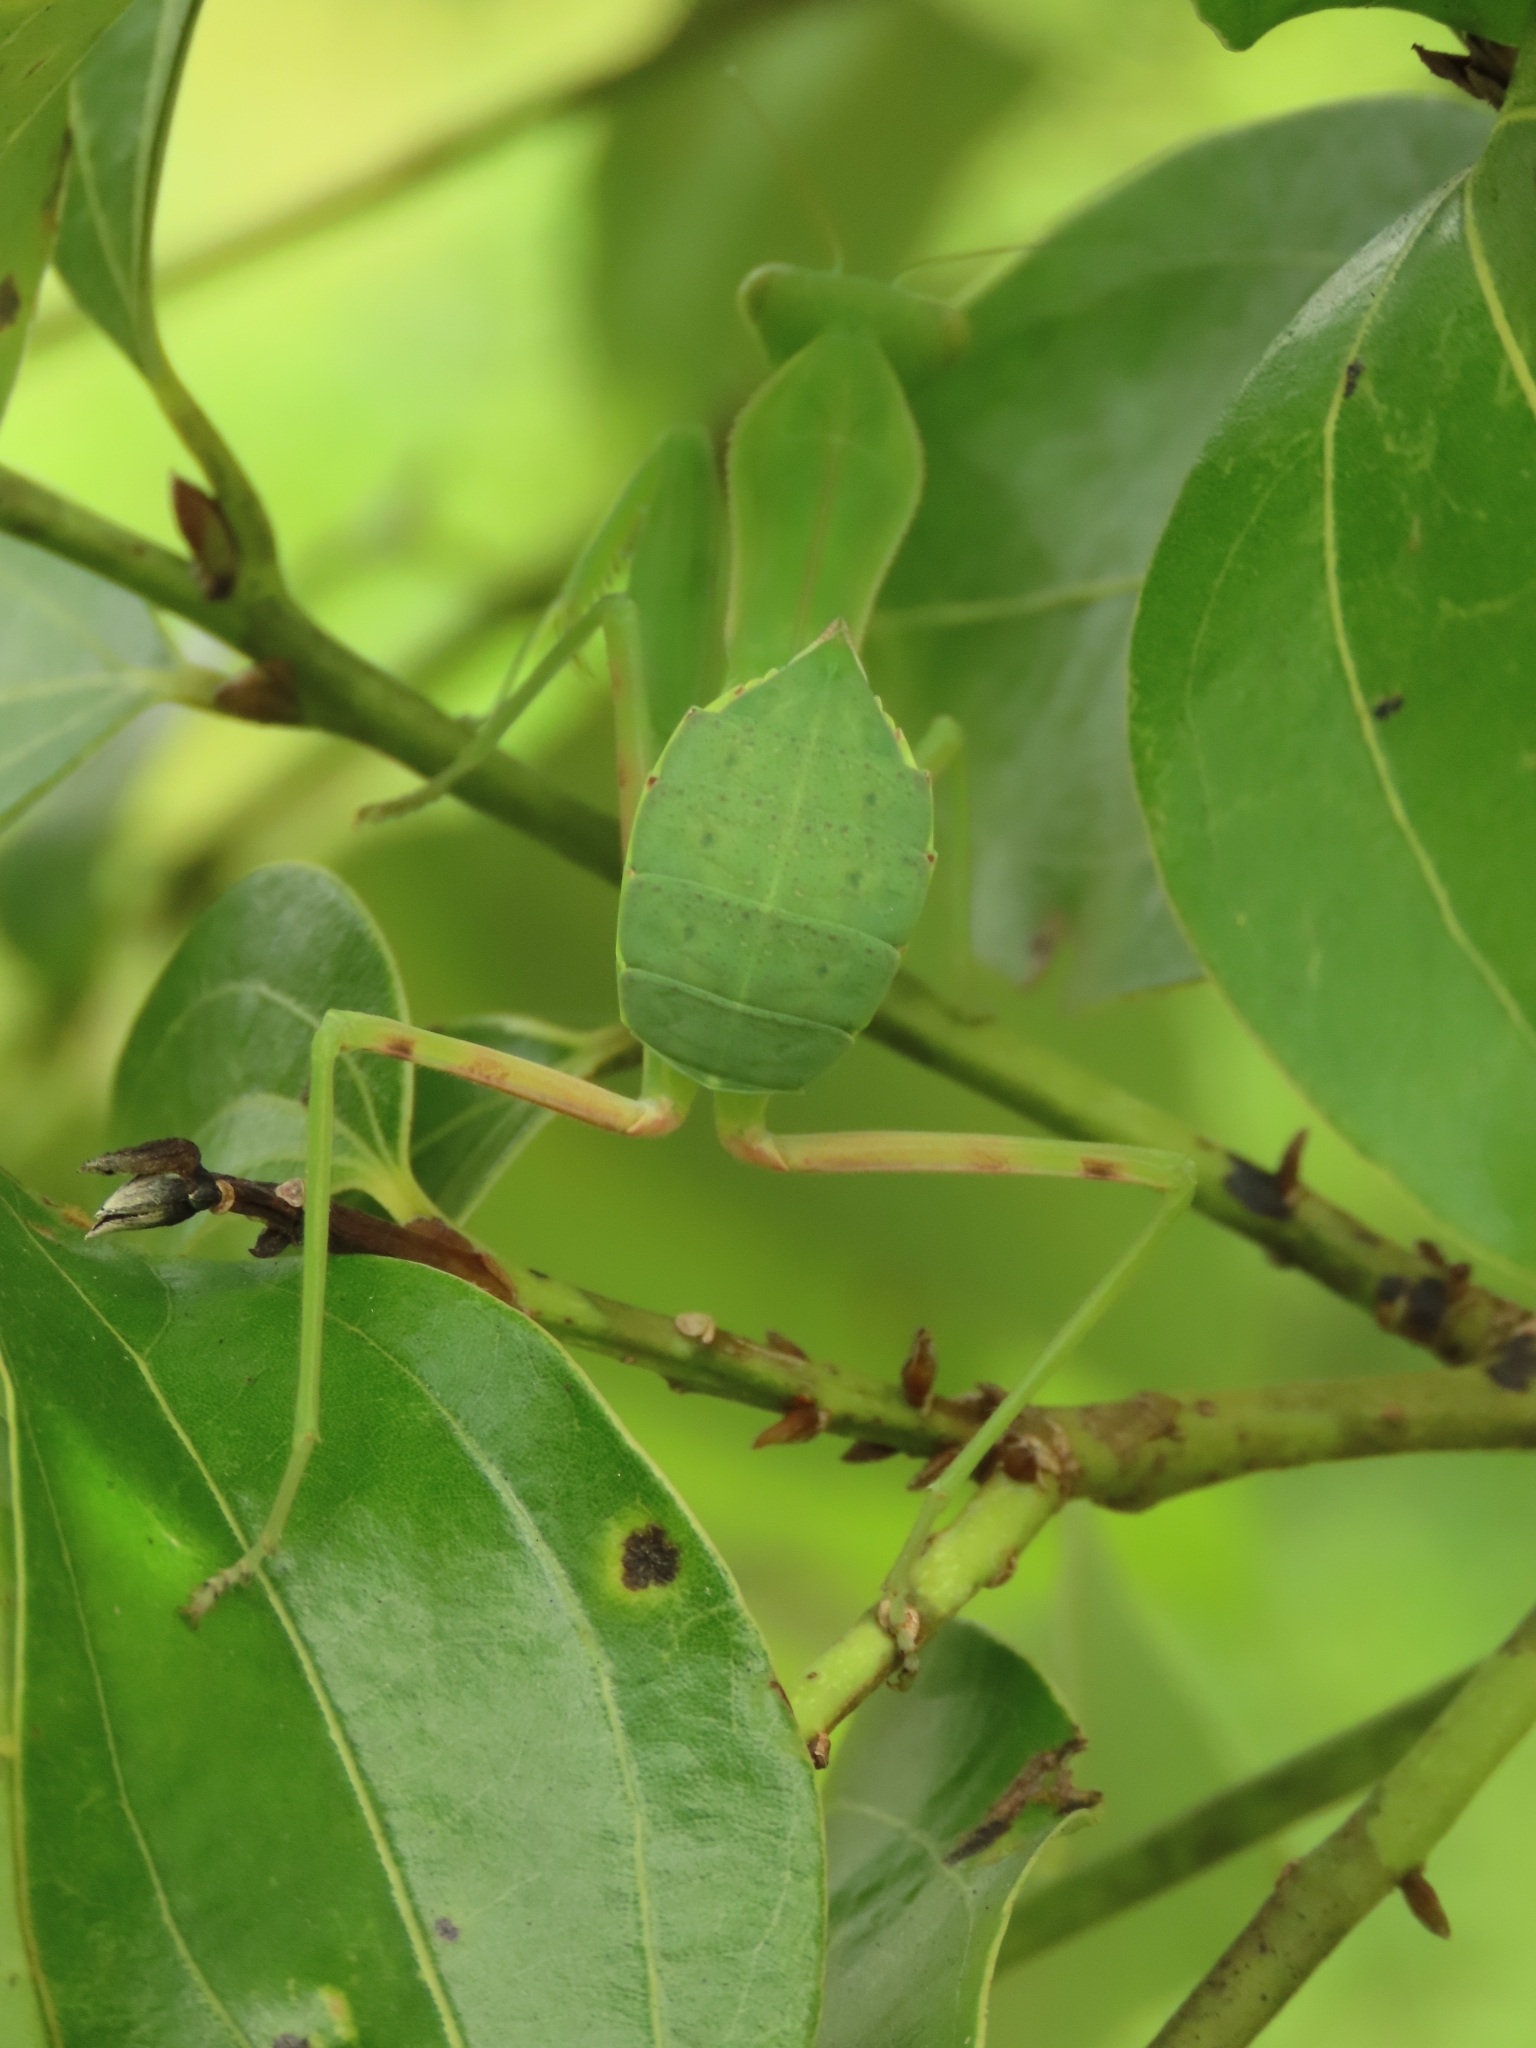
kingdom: Animalia
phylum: Arthropoda
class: Insecta
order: Mantodea
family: Mantidae
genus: Hierodula
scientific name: Hierodula patellifera
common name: Asian mantis
